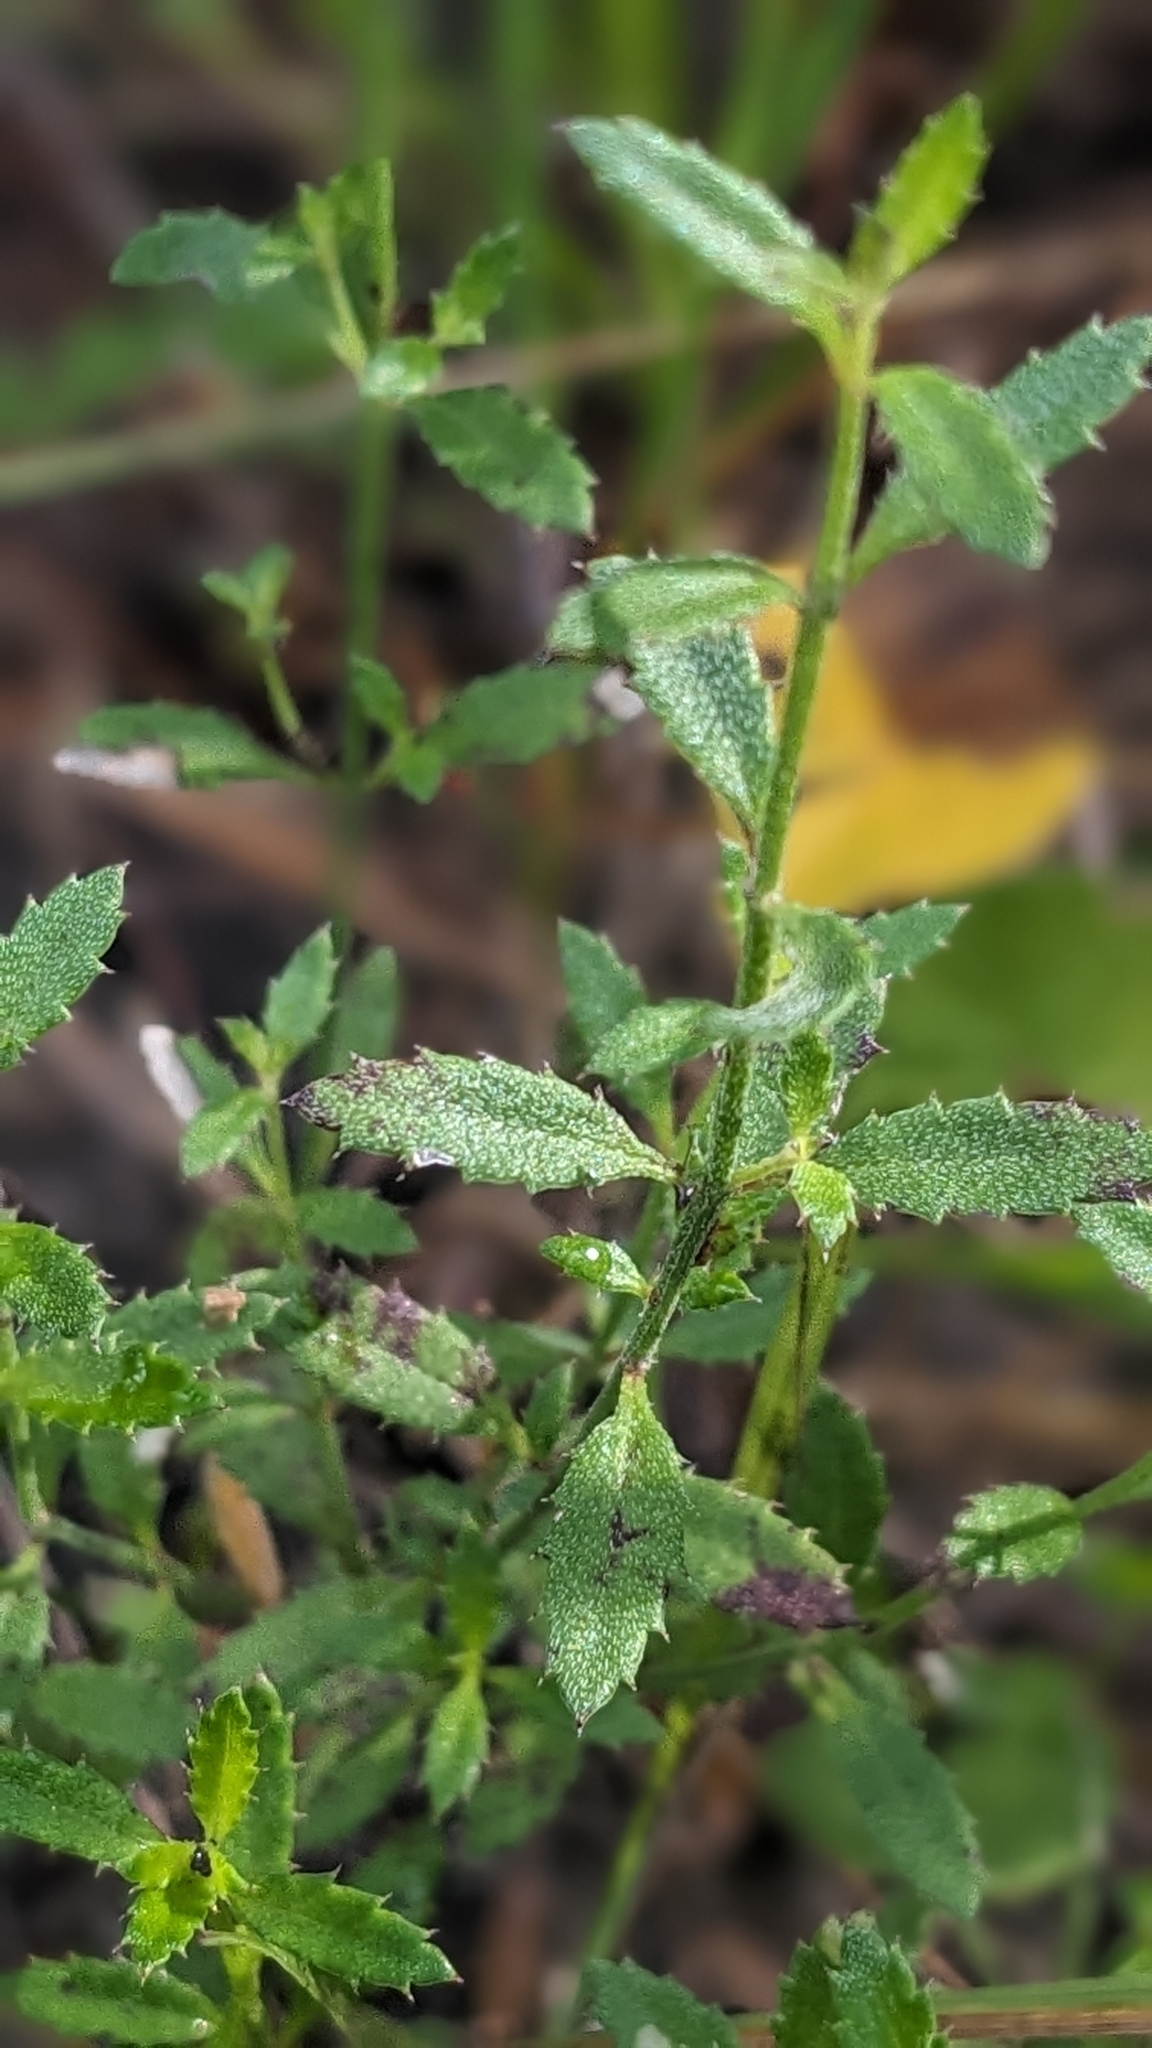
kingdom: Plantae
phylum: Tracheophyta
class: Magnoliopsida
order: Saxifragales
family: Haloragaceae
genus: Gonocarpus
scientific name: Gonocarpus tetragynus
